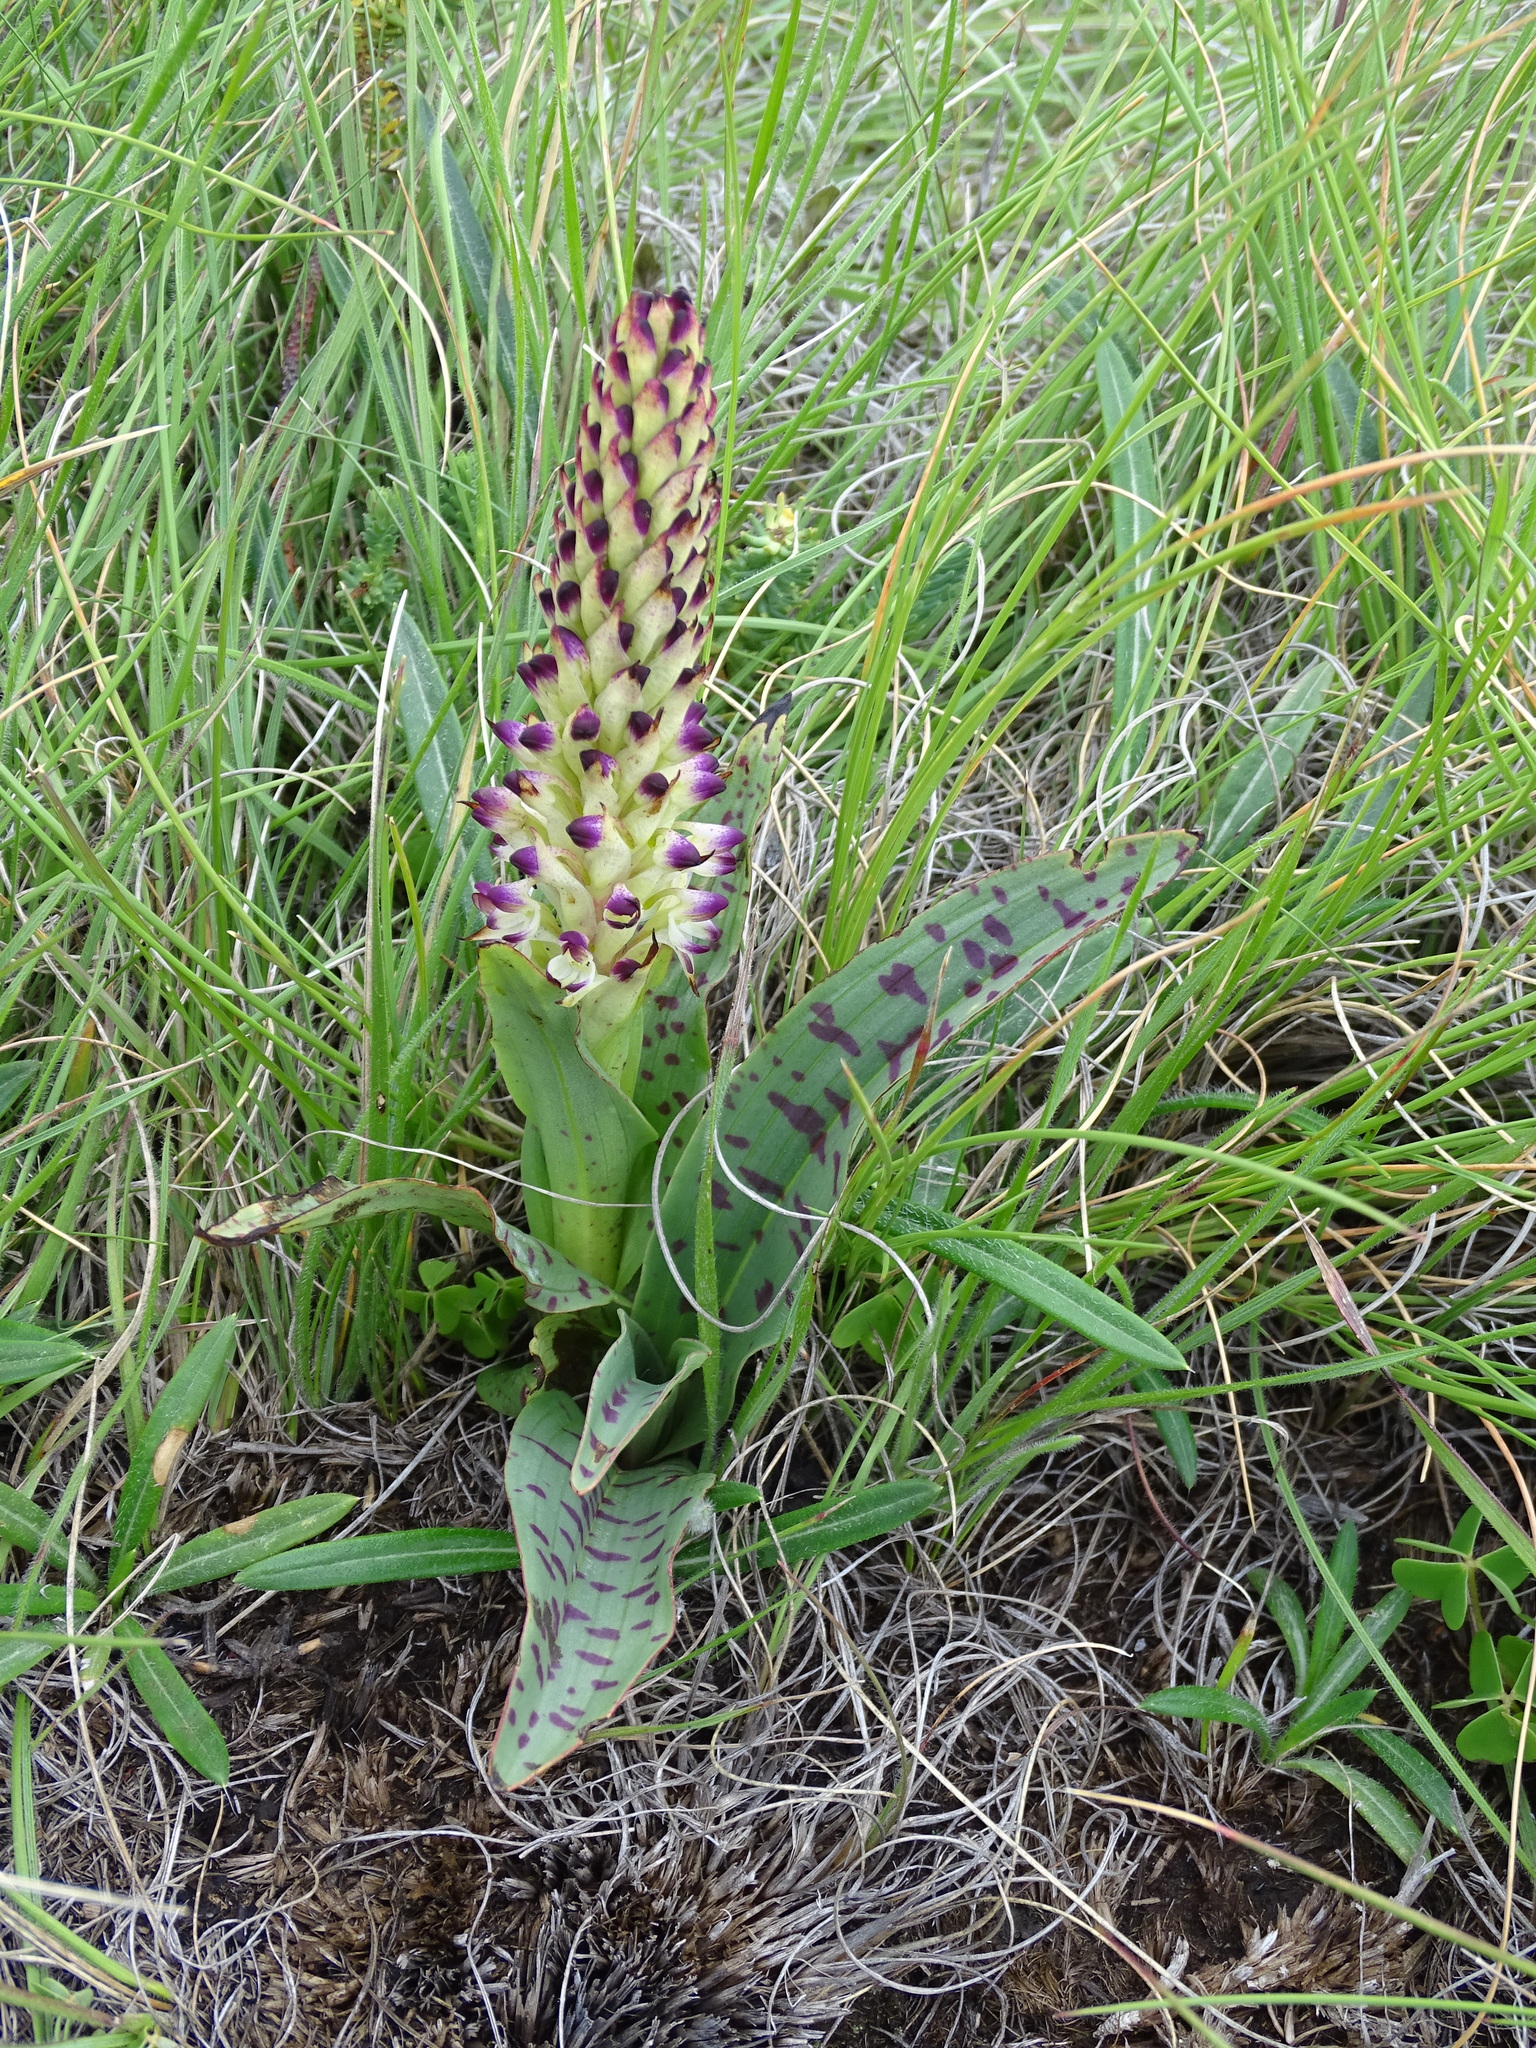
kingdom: Plantae
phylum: Tracheophyta
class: Liliopsida
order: Asparagales
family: Orchidaceae
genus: Disa
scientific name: Disa fragrans
